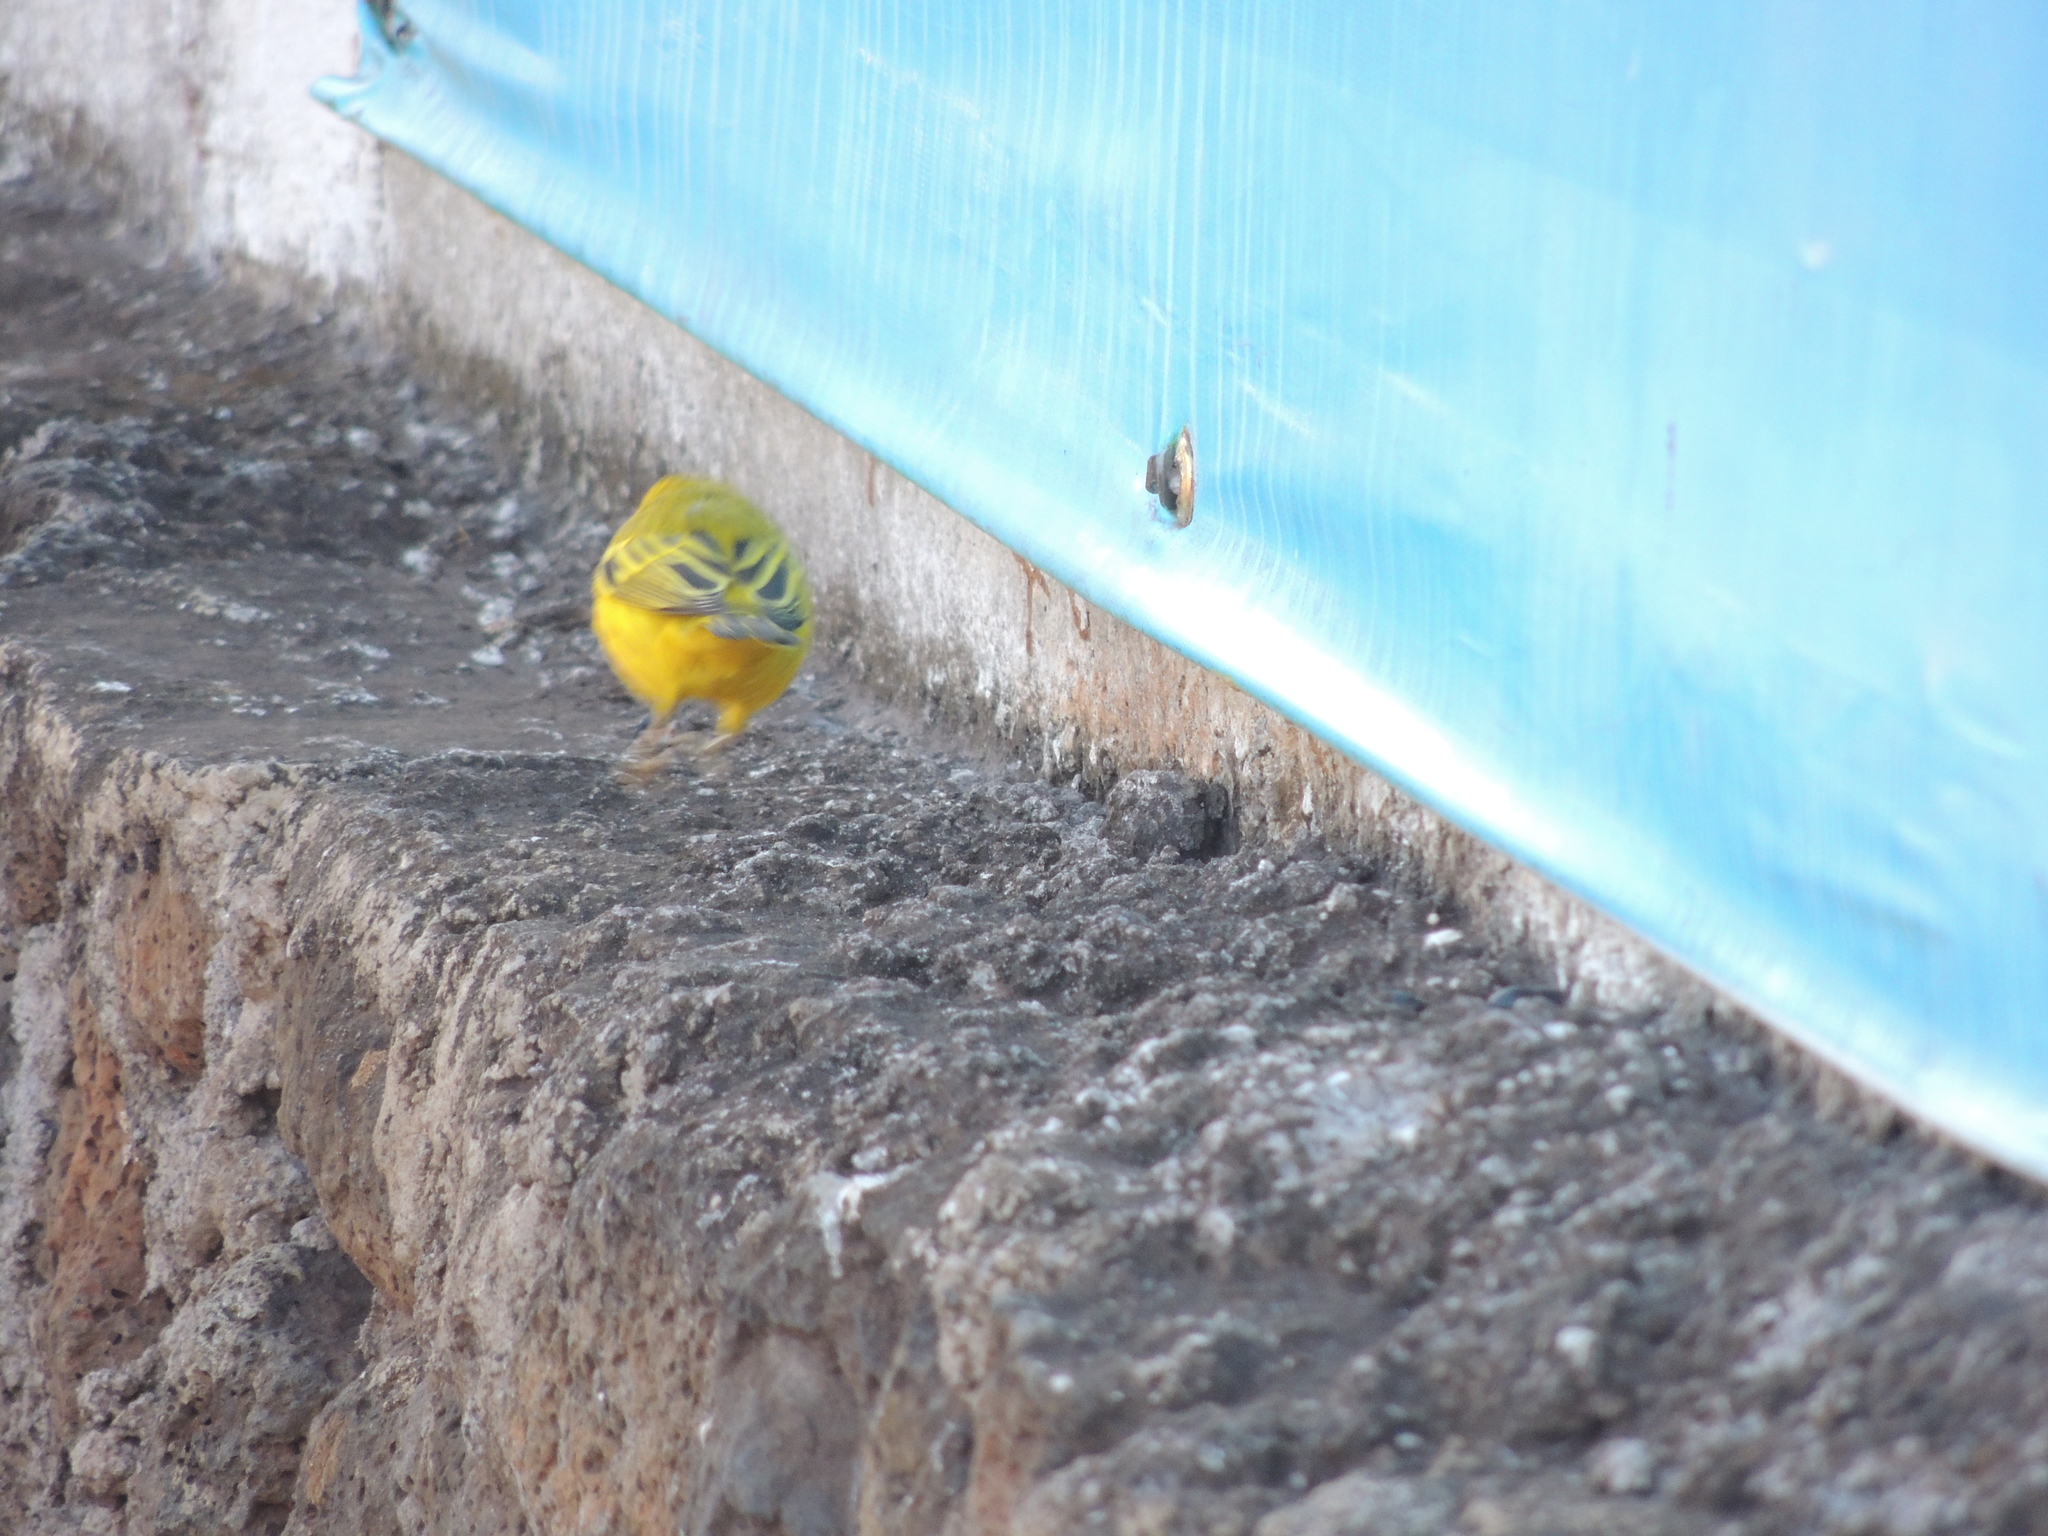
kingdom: Animalia
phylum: Chordata
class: Aves
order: Passeriformes
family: Parulidae
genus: Setophaga
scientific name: Setophaga petechia
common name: Yellow warbler
